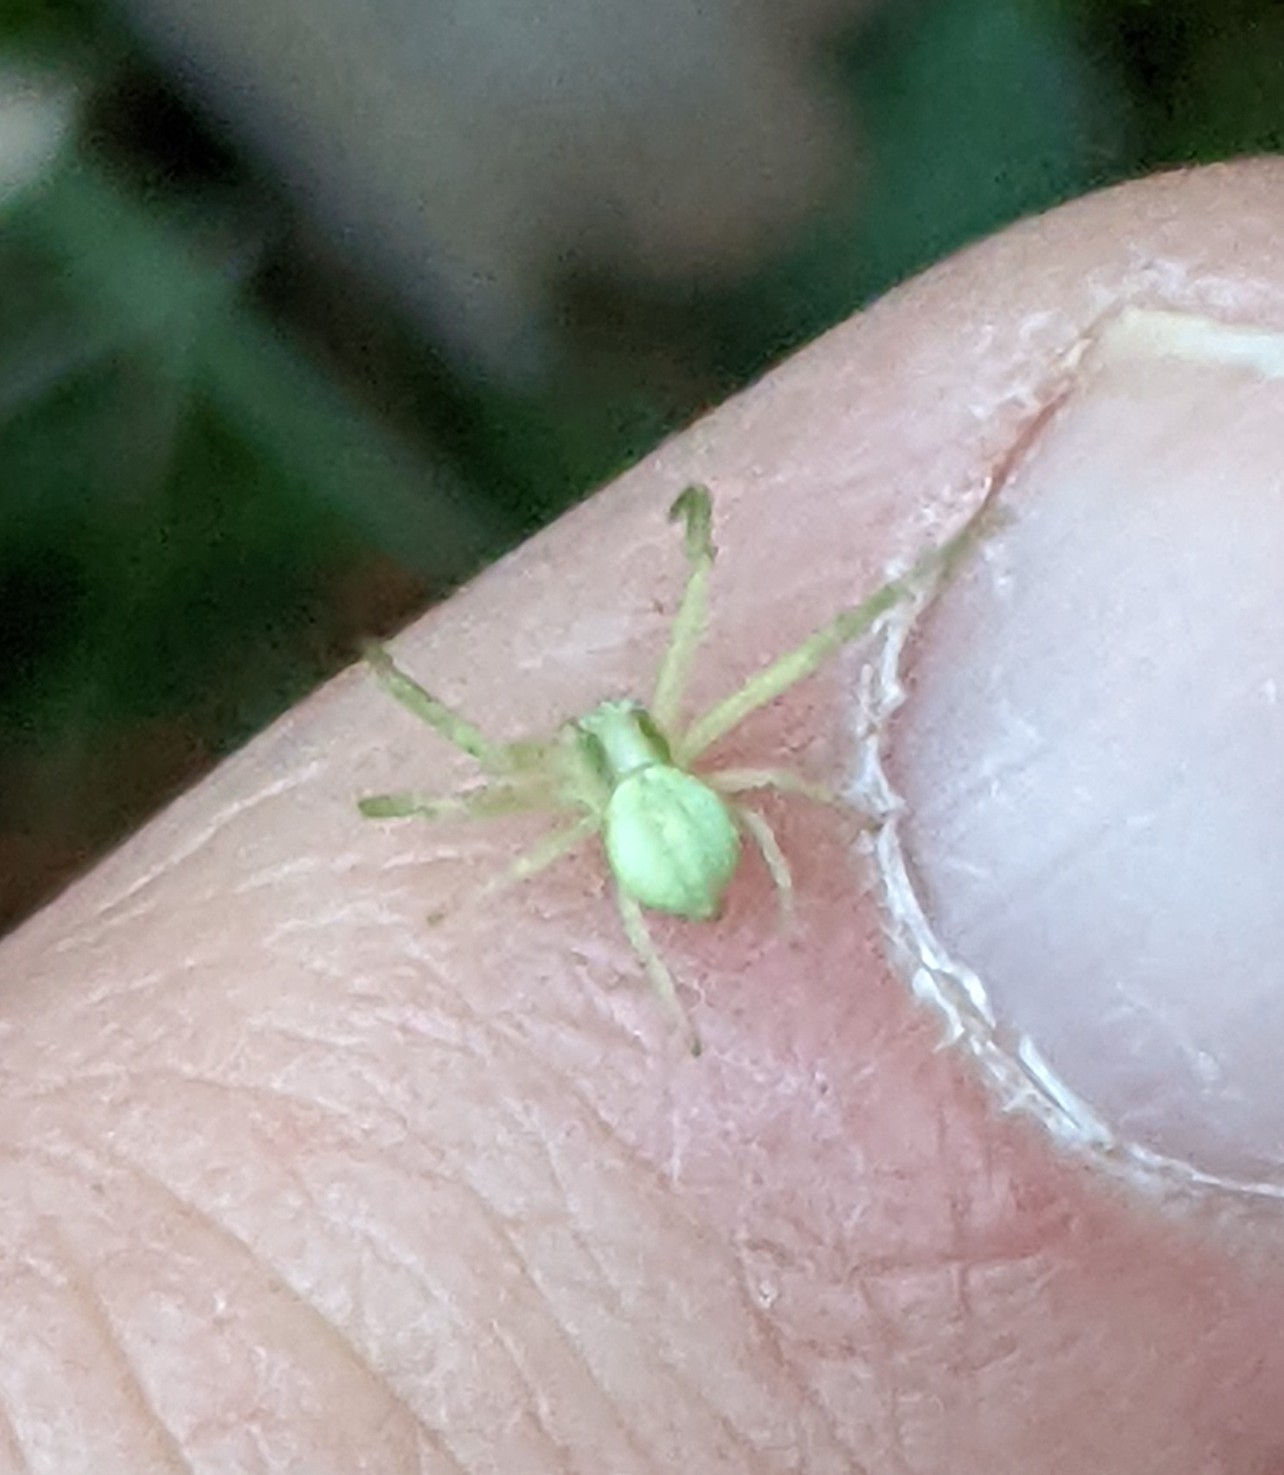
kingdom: Animalia
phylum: Arthropoda
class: Arachnida
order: Araneae
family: Thomisidae
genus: Misumena
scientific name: Misumena vatia
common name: Goldenrod crab spider
